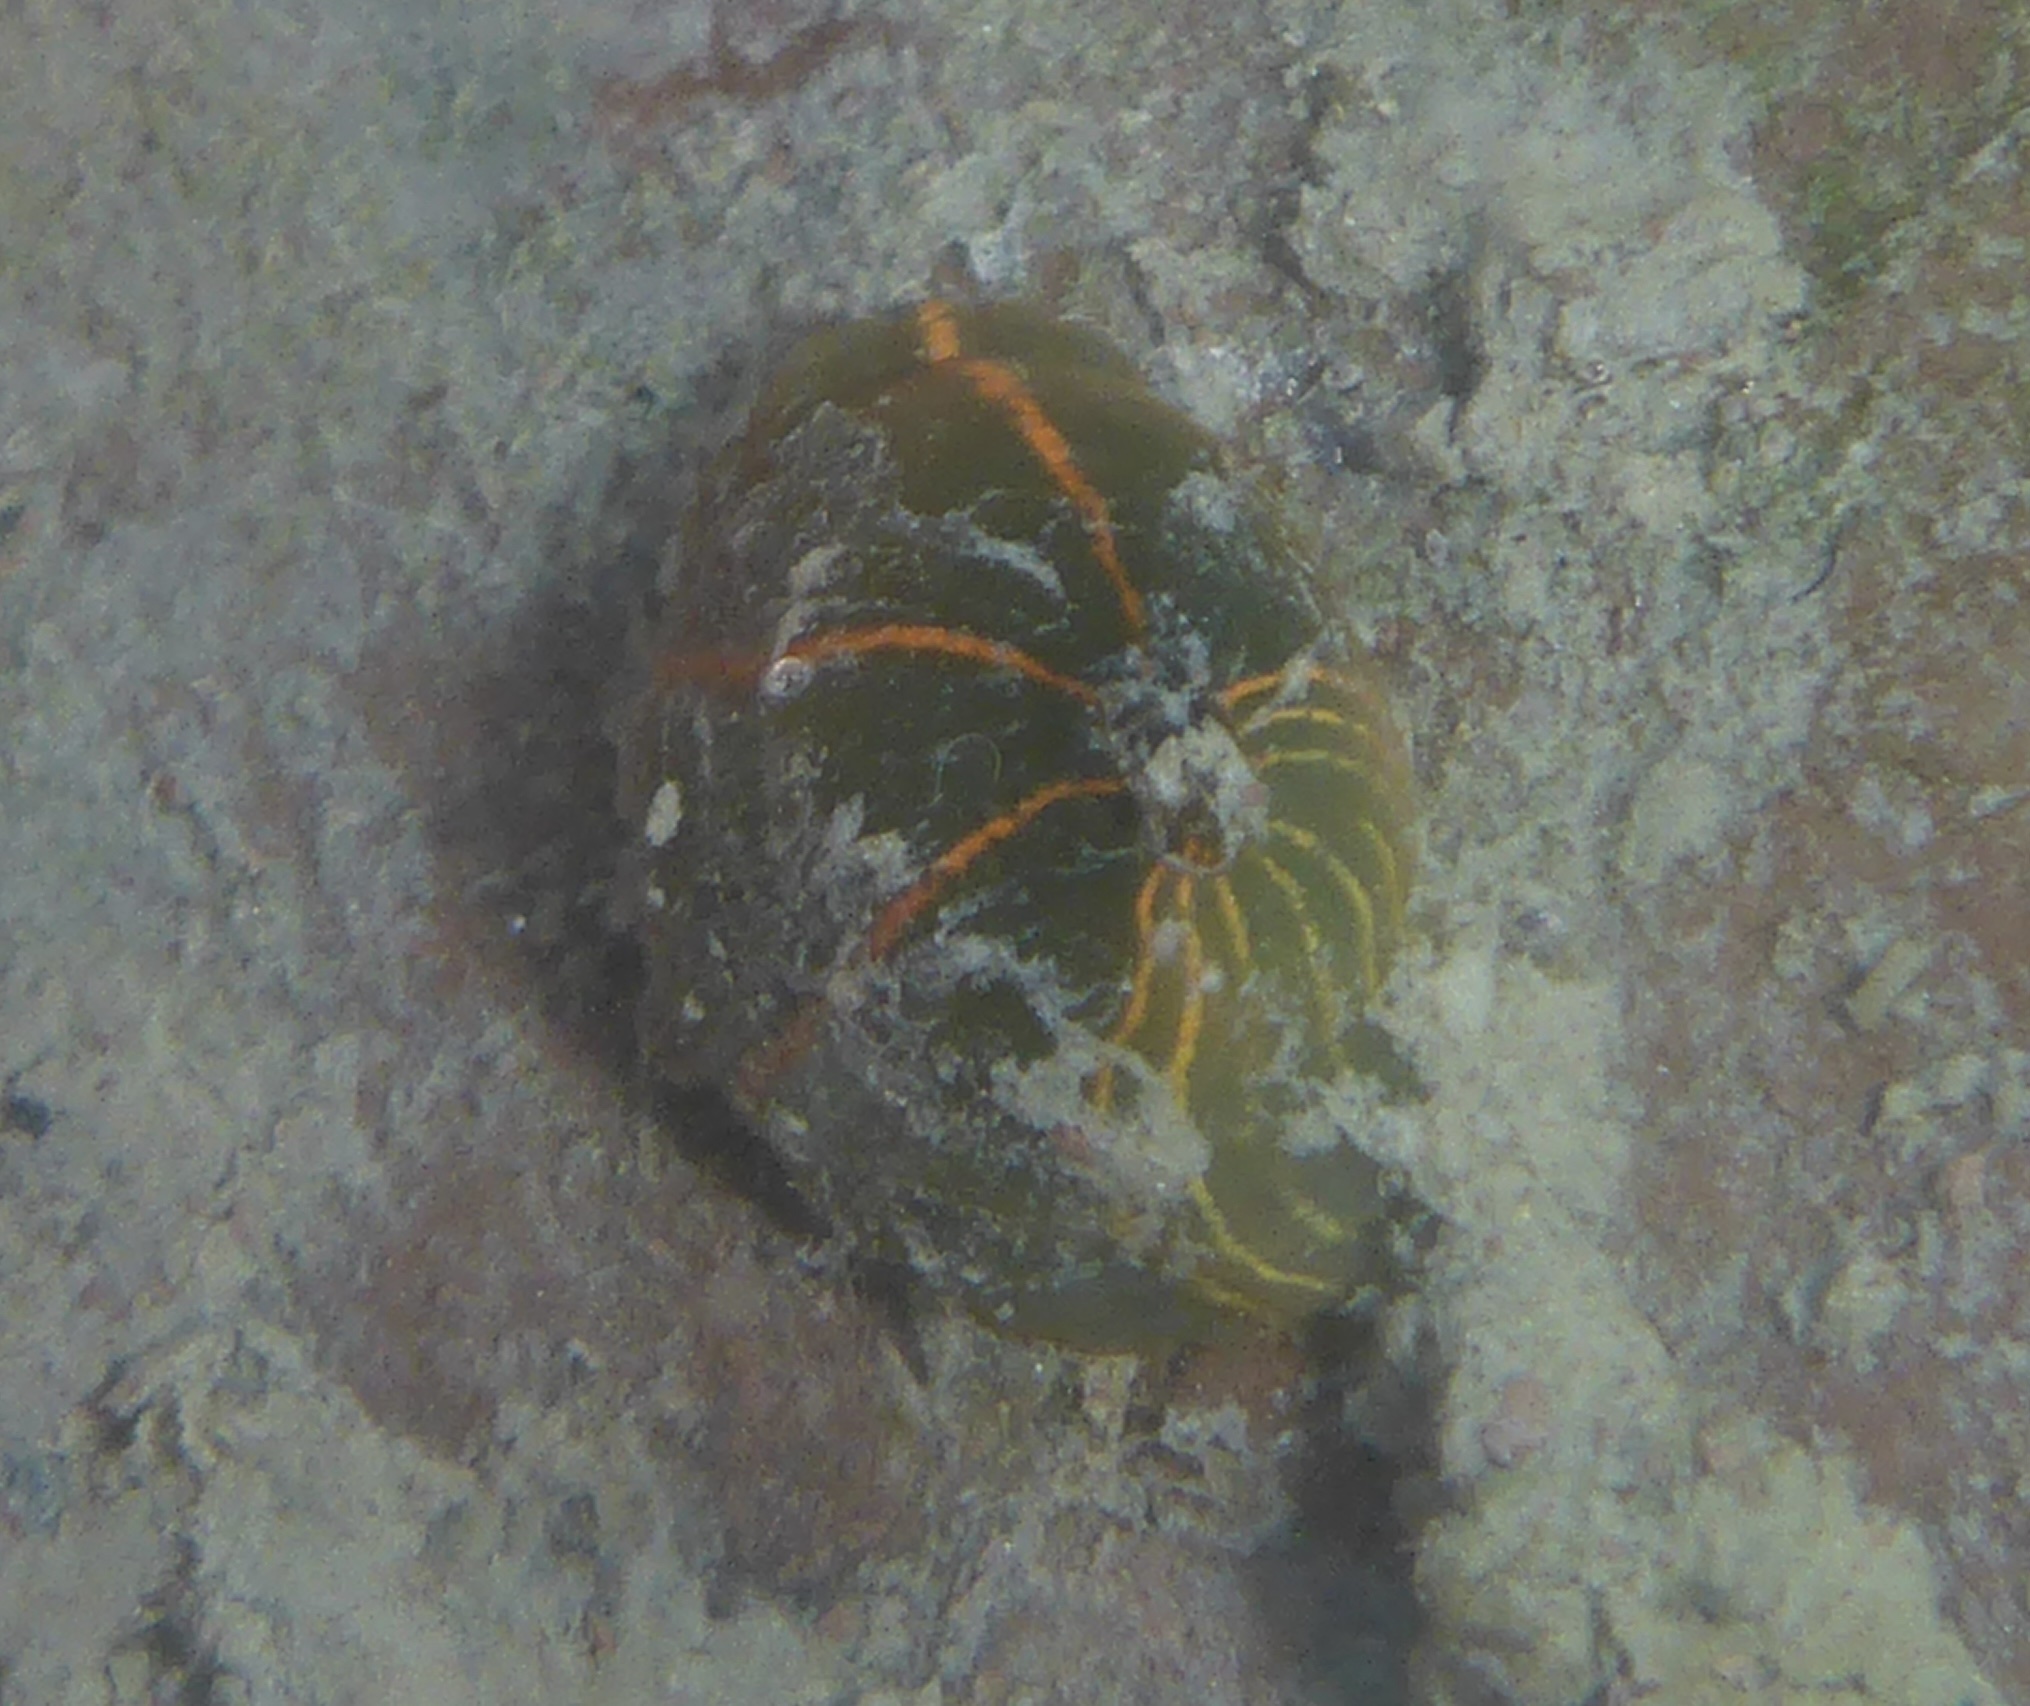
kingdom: Animalia
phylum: Cnidaria
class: Anthozoa
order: Actiniaria
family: Diadumenidae
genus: Diadumene
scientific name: Diadumene lineata
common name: Orange-striped anemone
